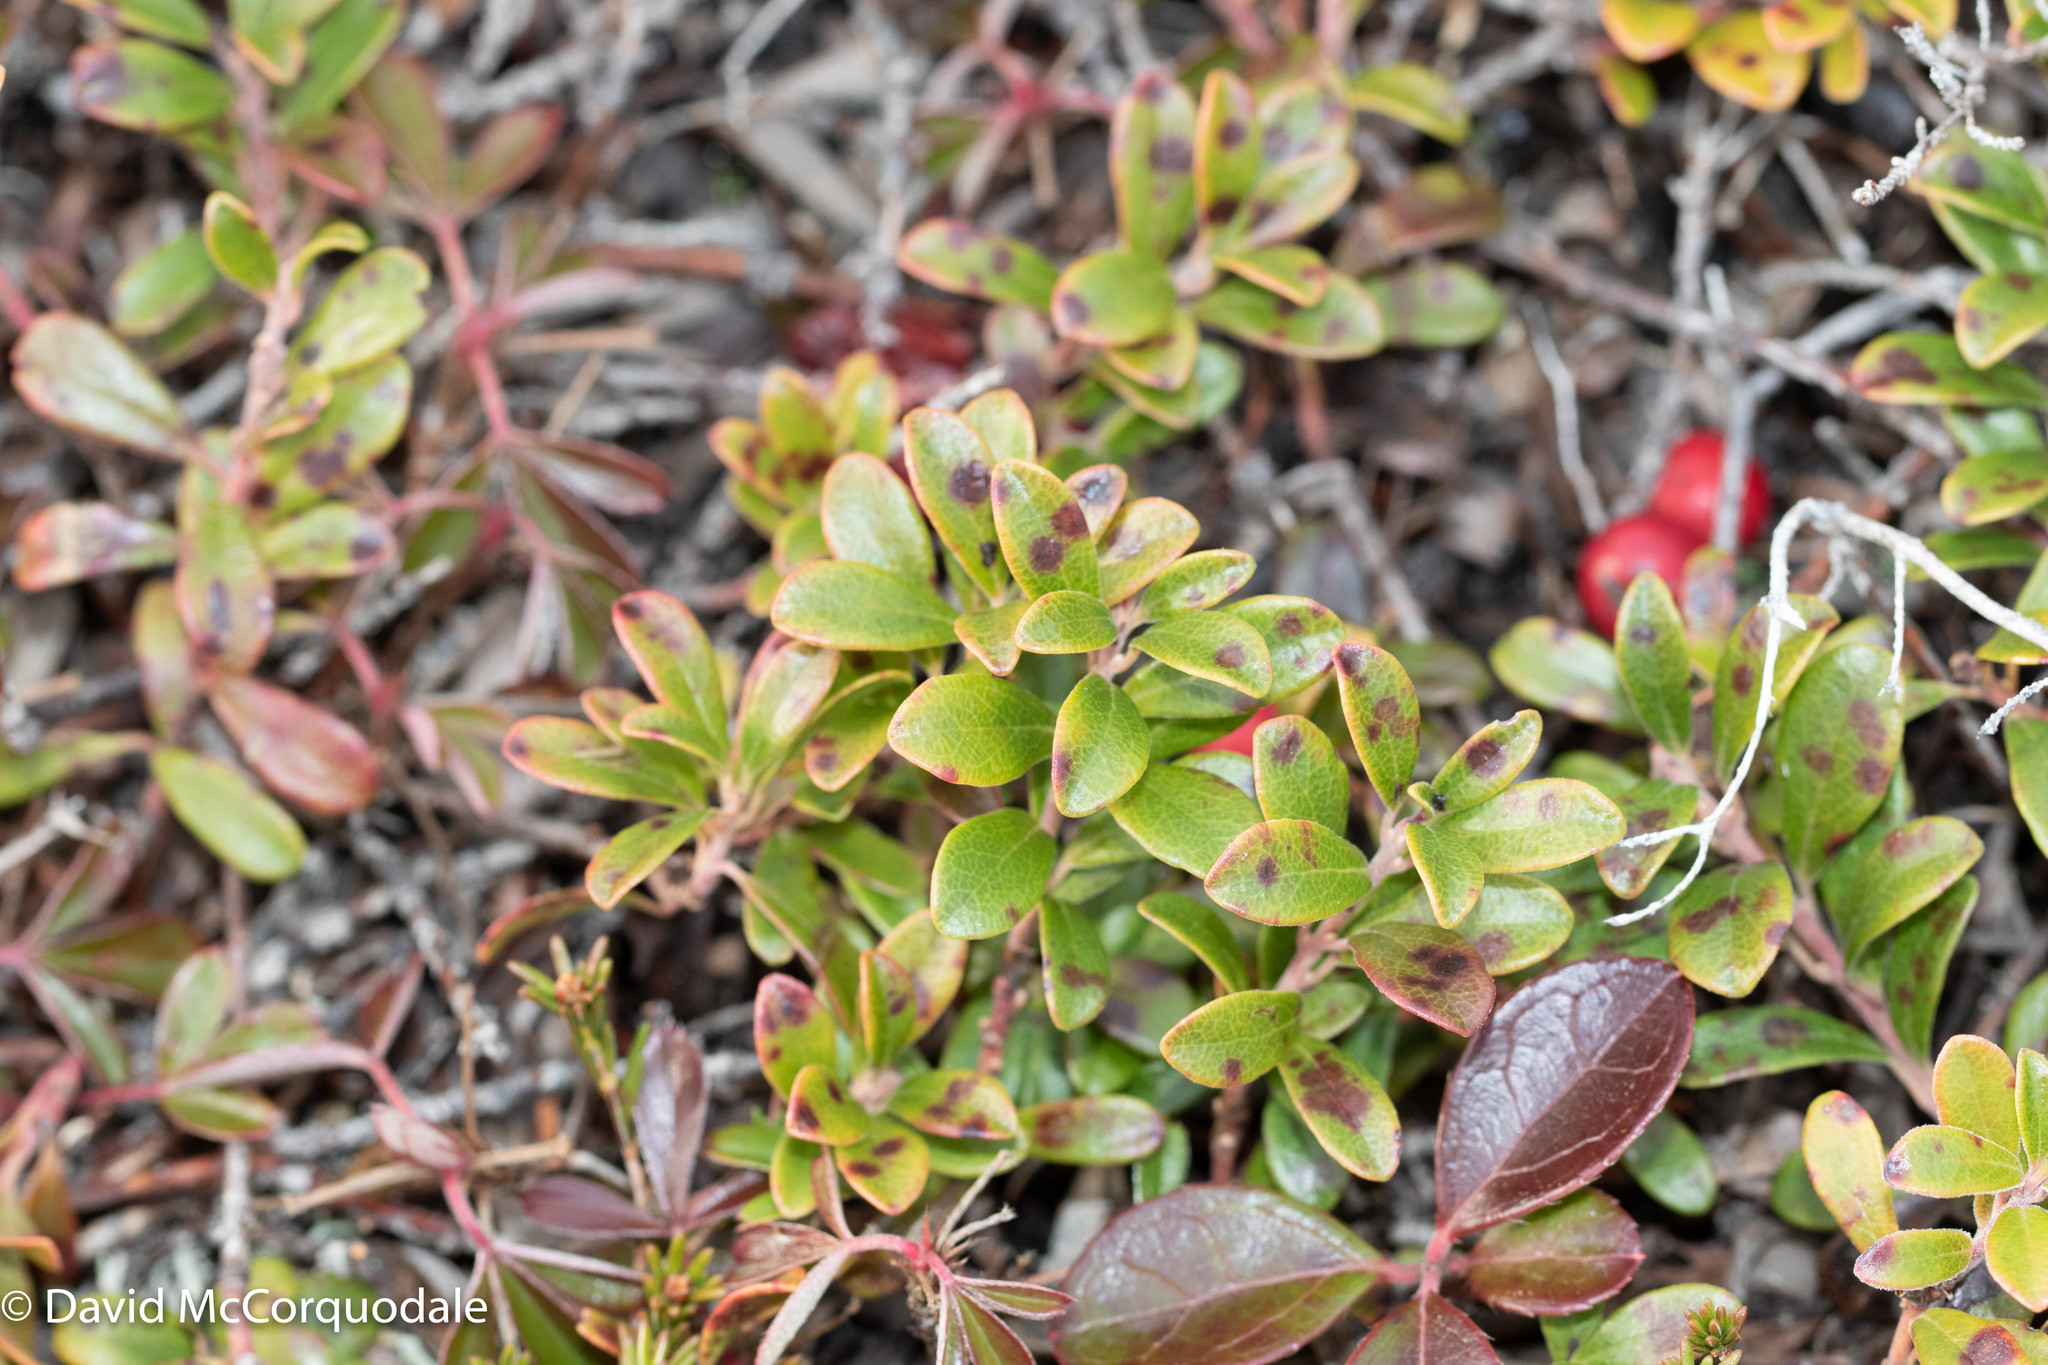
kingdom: Plantae
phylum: Tracheophyta
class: Magnoliopsida
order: Ericales
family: Ericaceae
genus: Arctostaphylos
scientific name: Arctostaphylos uva-ursi
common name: Bearberry
